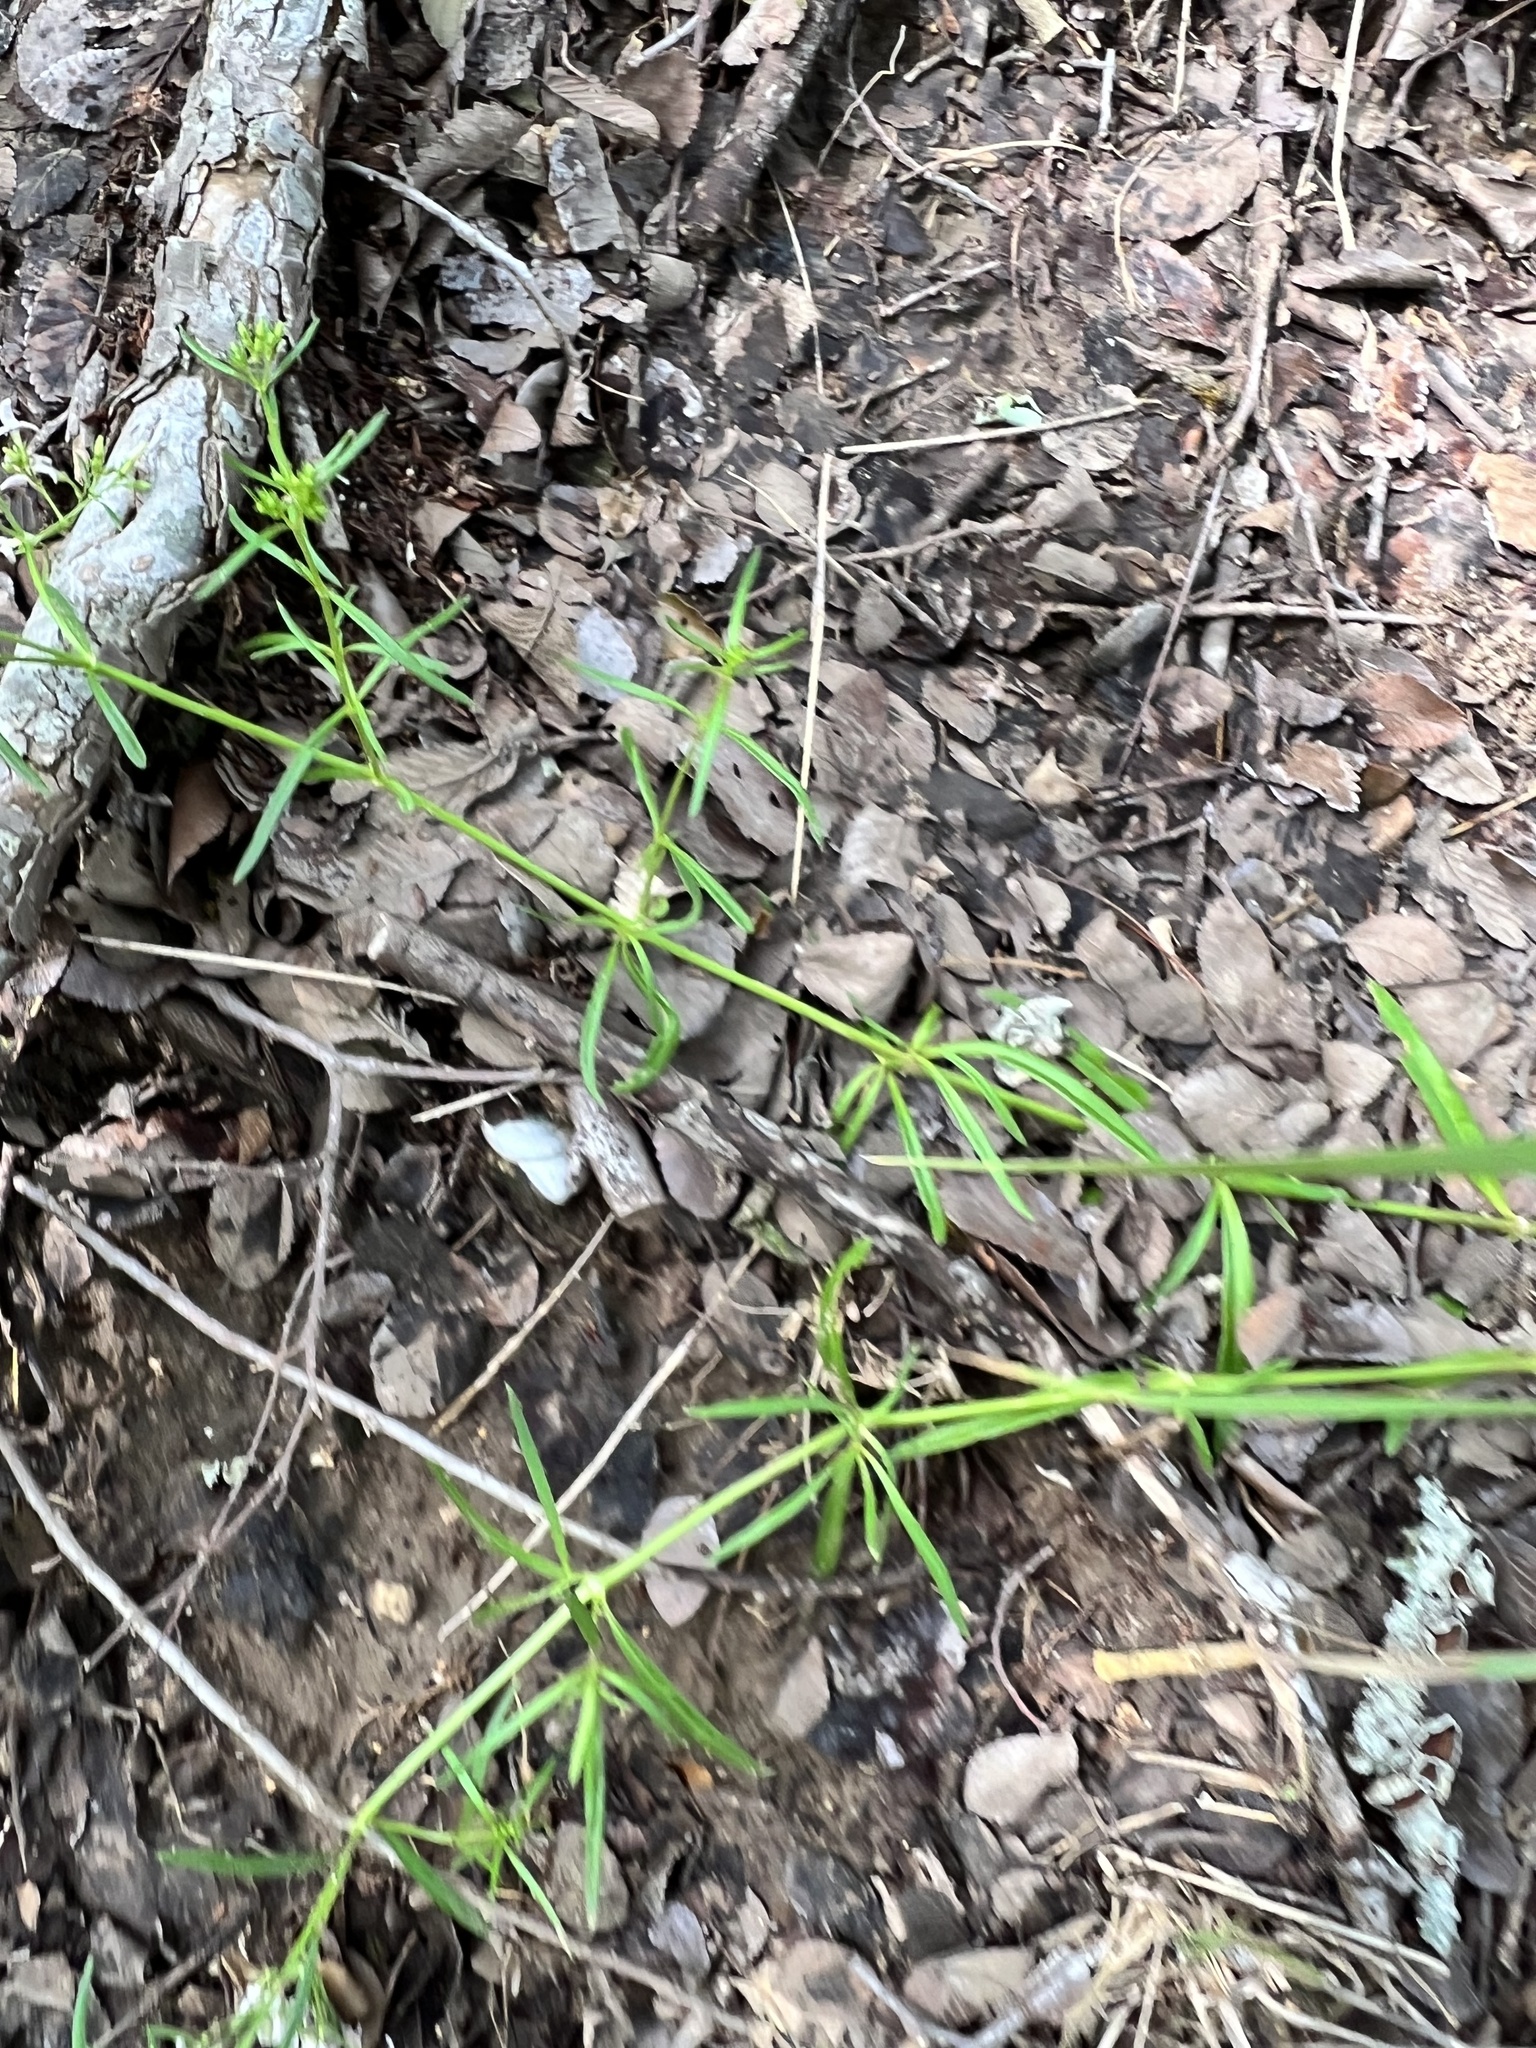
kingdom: Plantae
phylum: Tracheophyta
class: Magnoliopsida
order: Gentianales
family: Rubiaceae
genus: Stenaria
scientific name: Stenaria nigricans
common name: Diamondflowers
